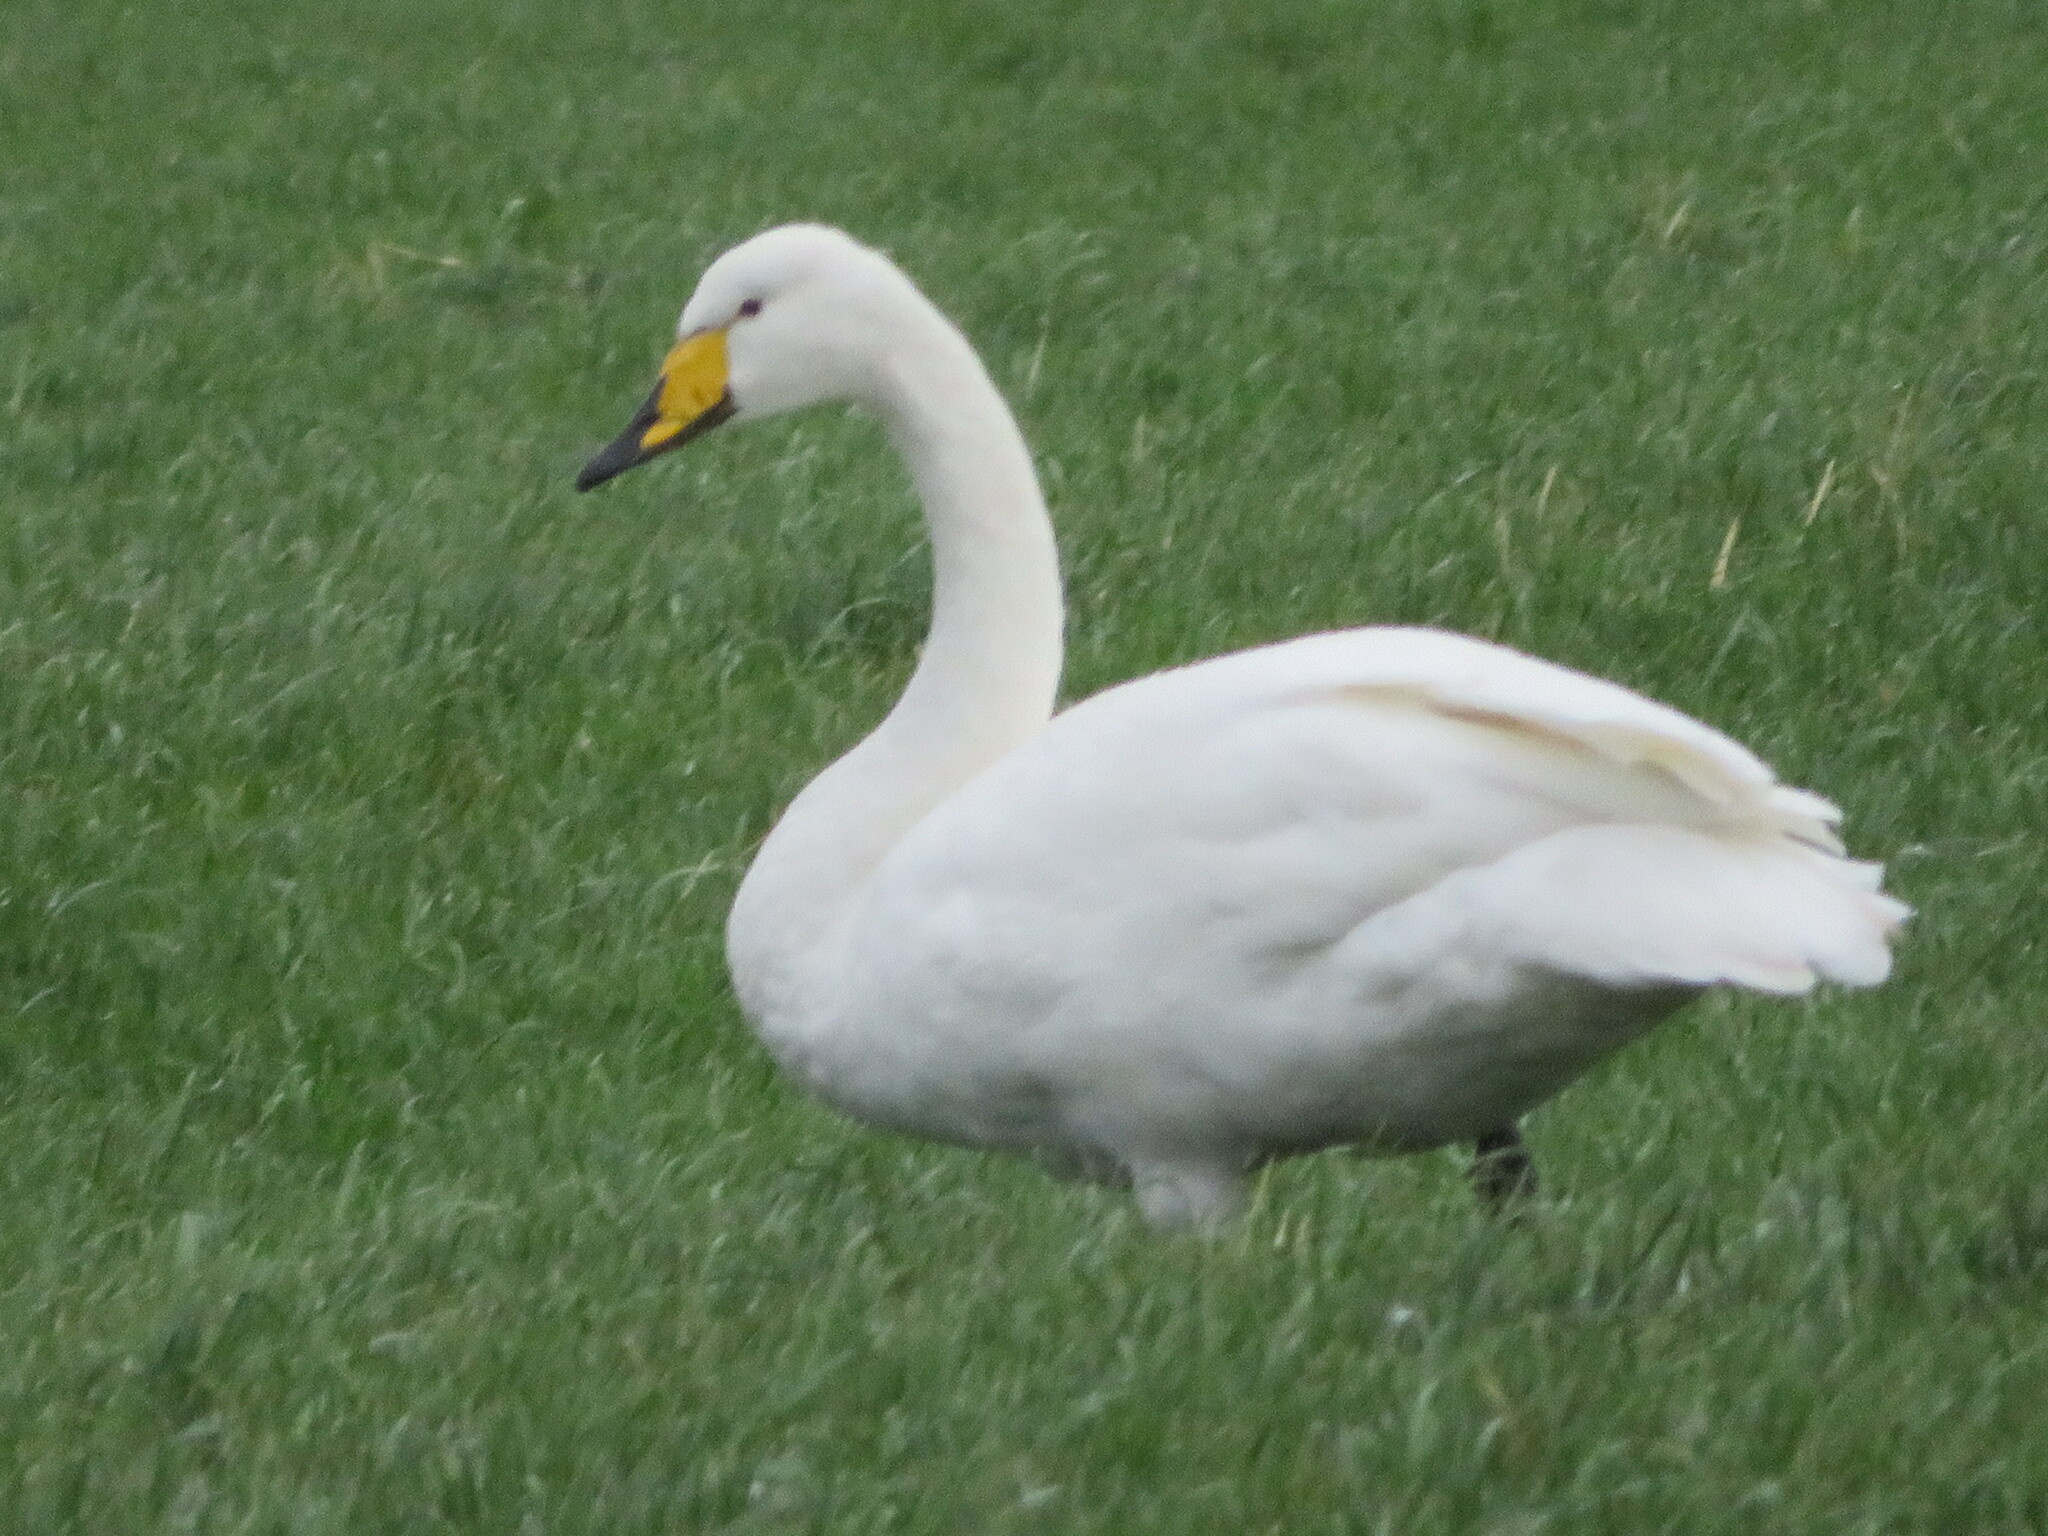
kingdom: Animalia
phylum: Chordata
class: Aves
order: Anseriformes
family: Anatidae
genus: Cygnus
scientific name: Cygnus cygnus
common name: Whooper swan
